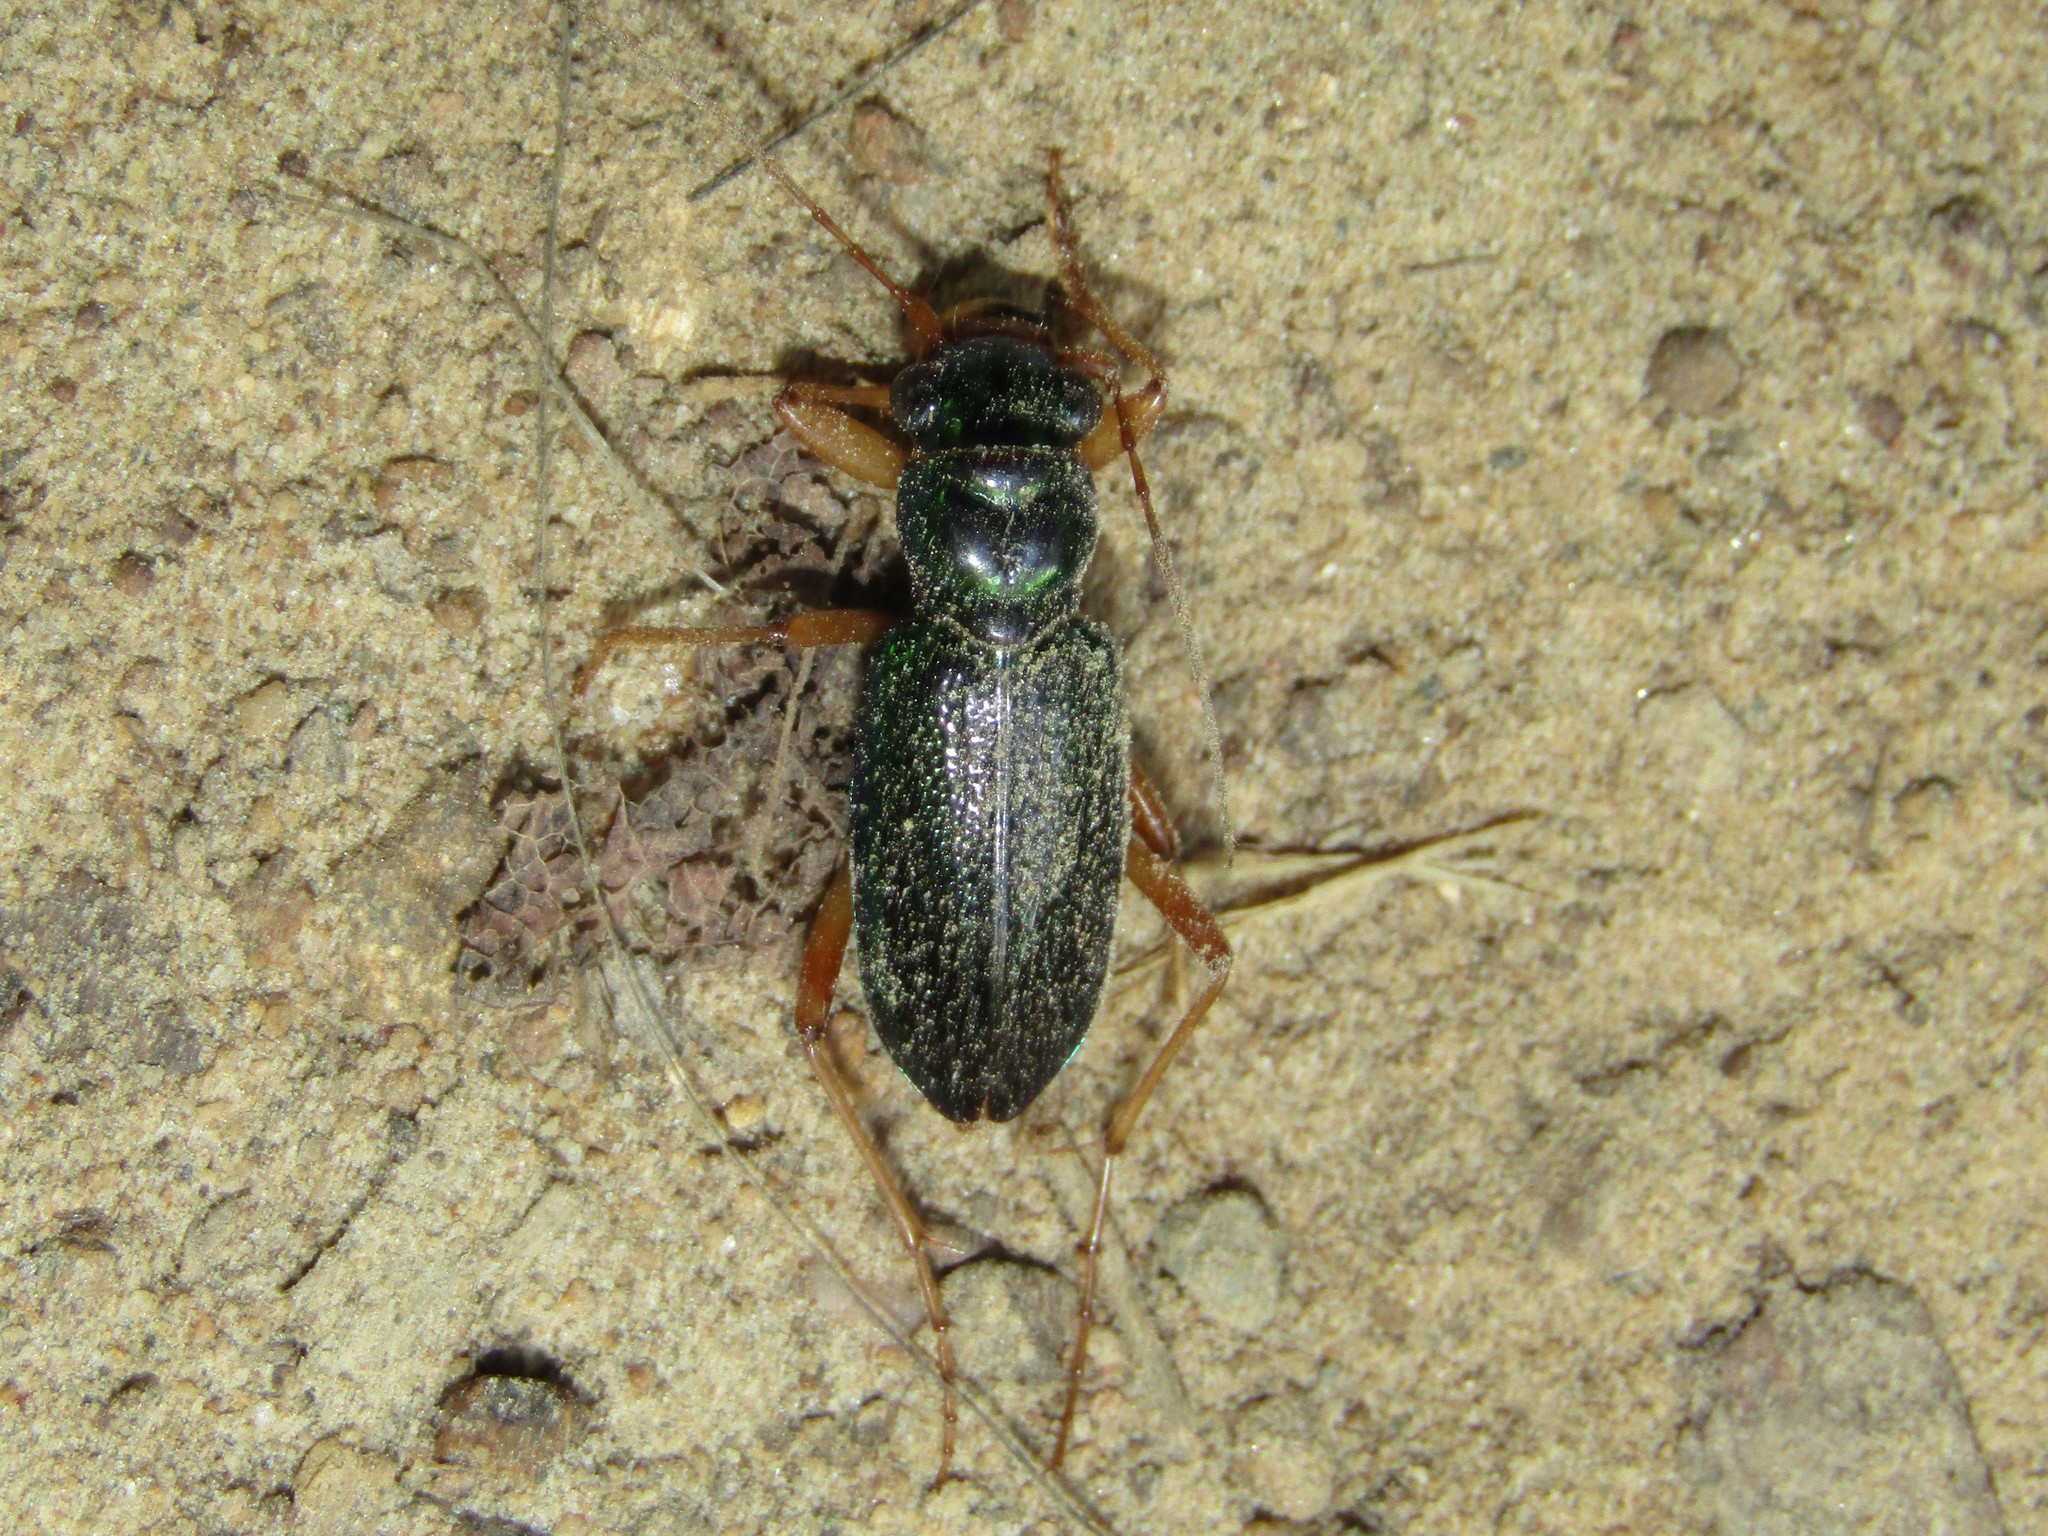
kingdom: Animalia
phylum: Arthropoda
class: Insecta
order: Coleoptera
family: Carabidae
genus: Tetracha
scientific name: Tetracha virginica
